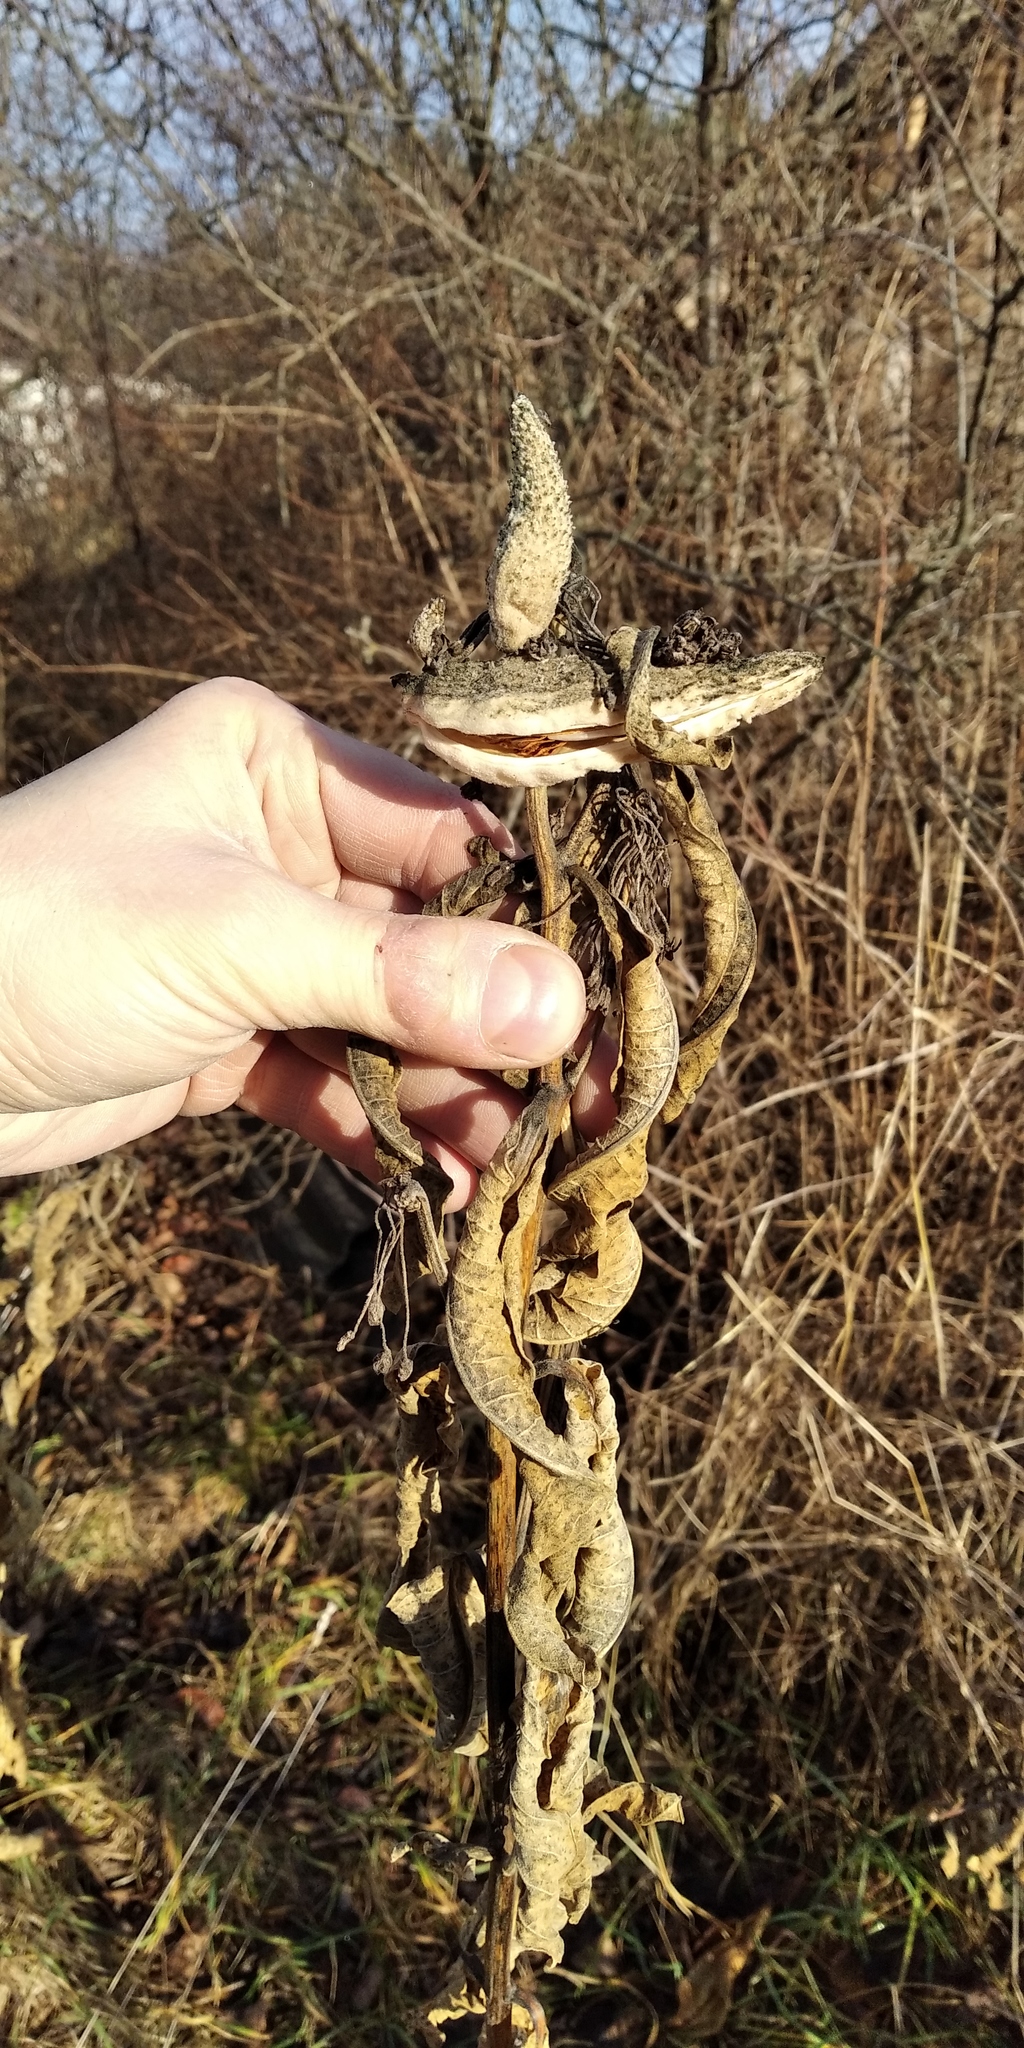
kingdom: Plantae
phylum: Tracheophyta
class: Magnoliopsida
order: Gentianales
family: Apocynaceae
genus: Asclepias
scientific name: Asclepias syriaca
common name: Common milkweed
